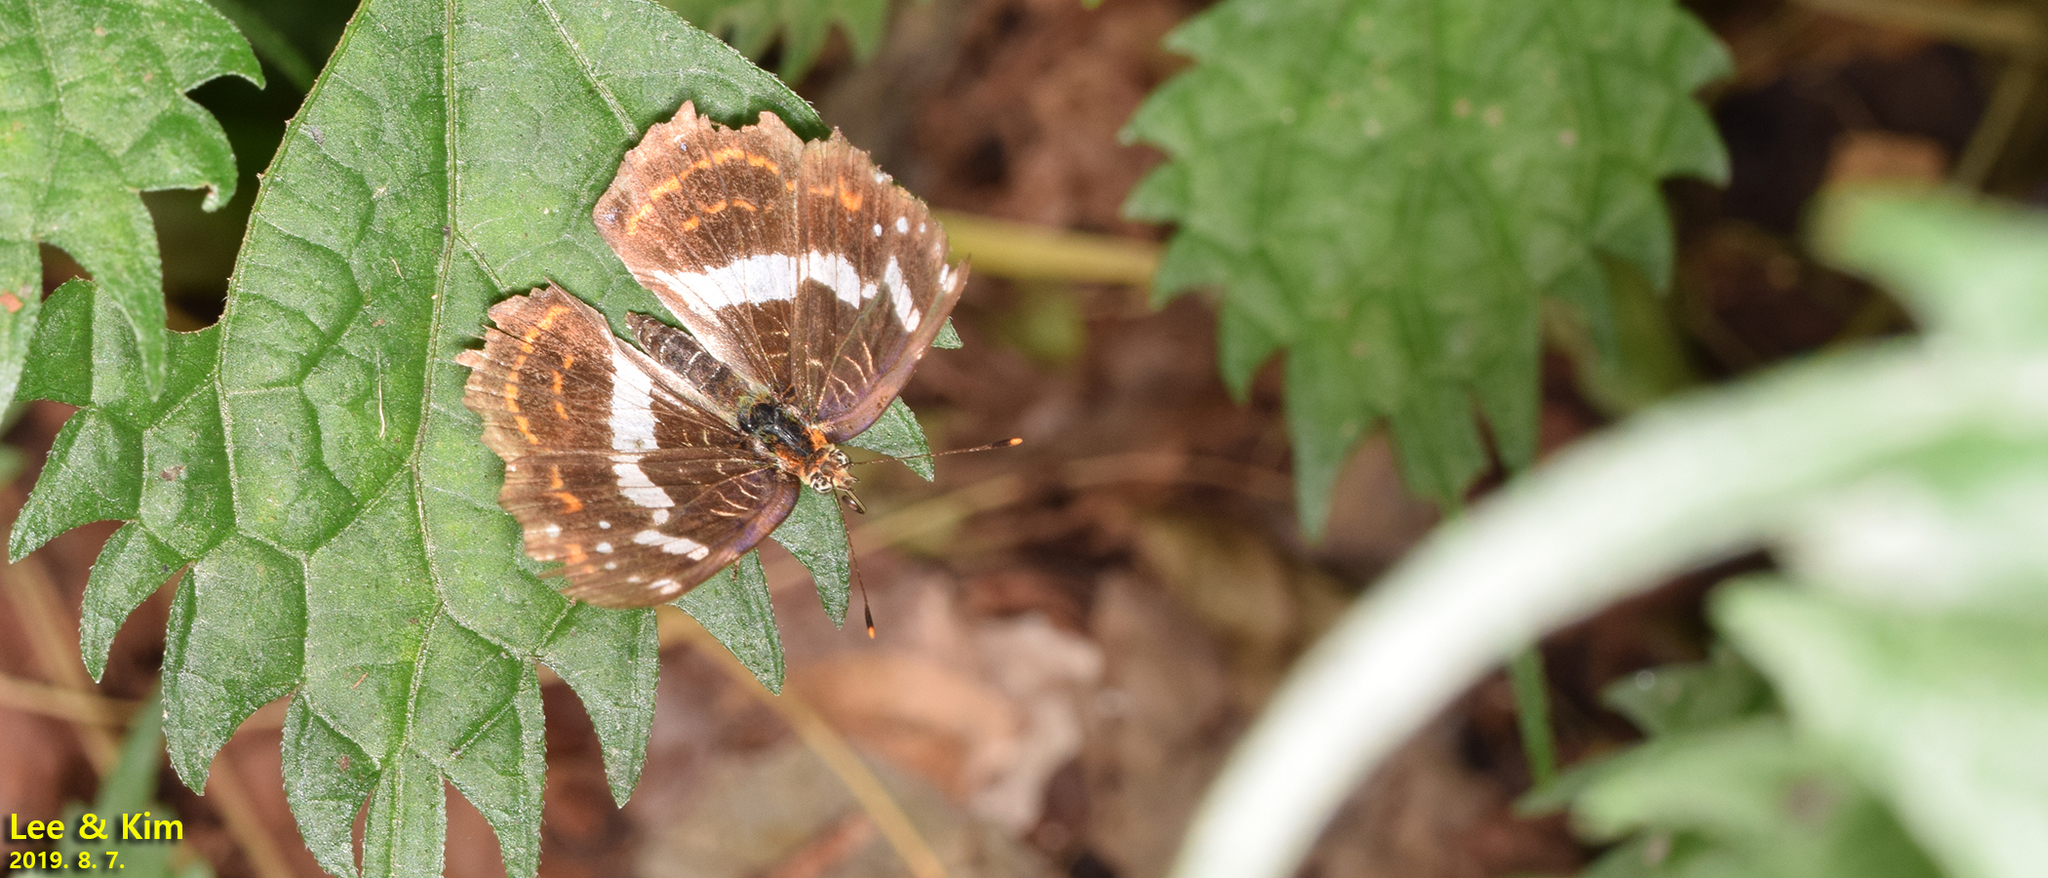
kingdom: Animalia
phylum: Arthropoda
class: Insecta
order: Lepidoptera
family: Nymphalidae
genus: Araschnia
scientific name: Araschnia burejana
